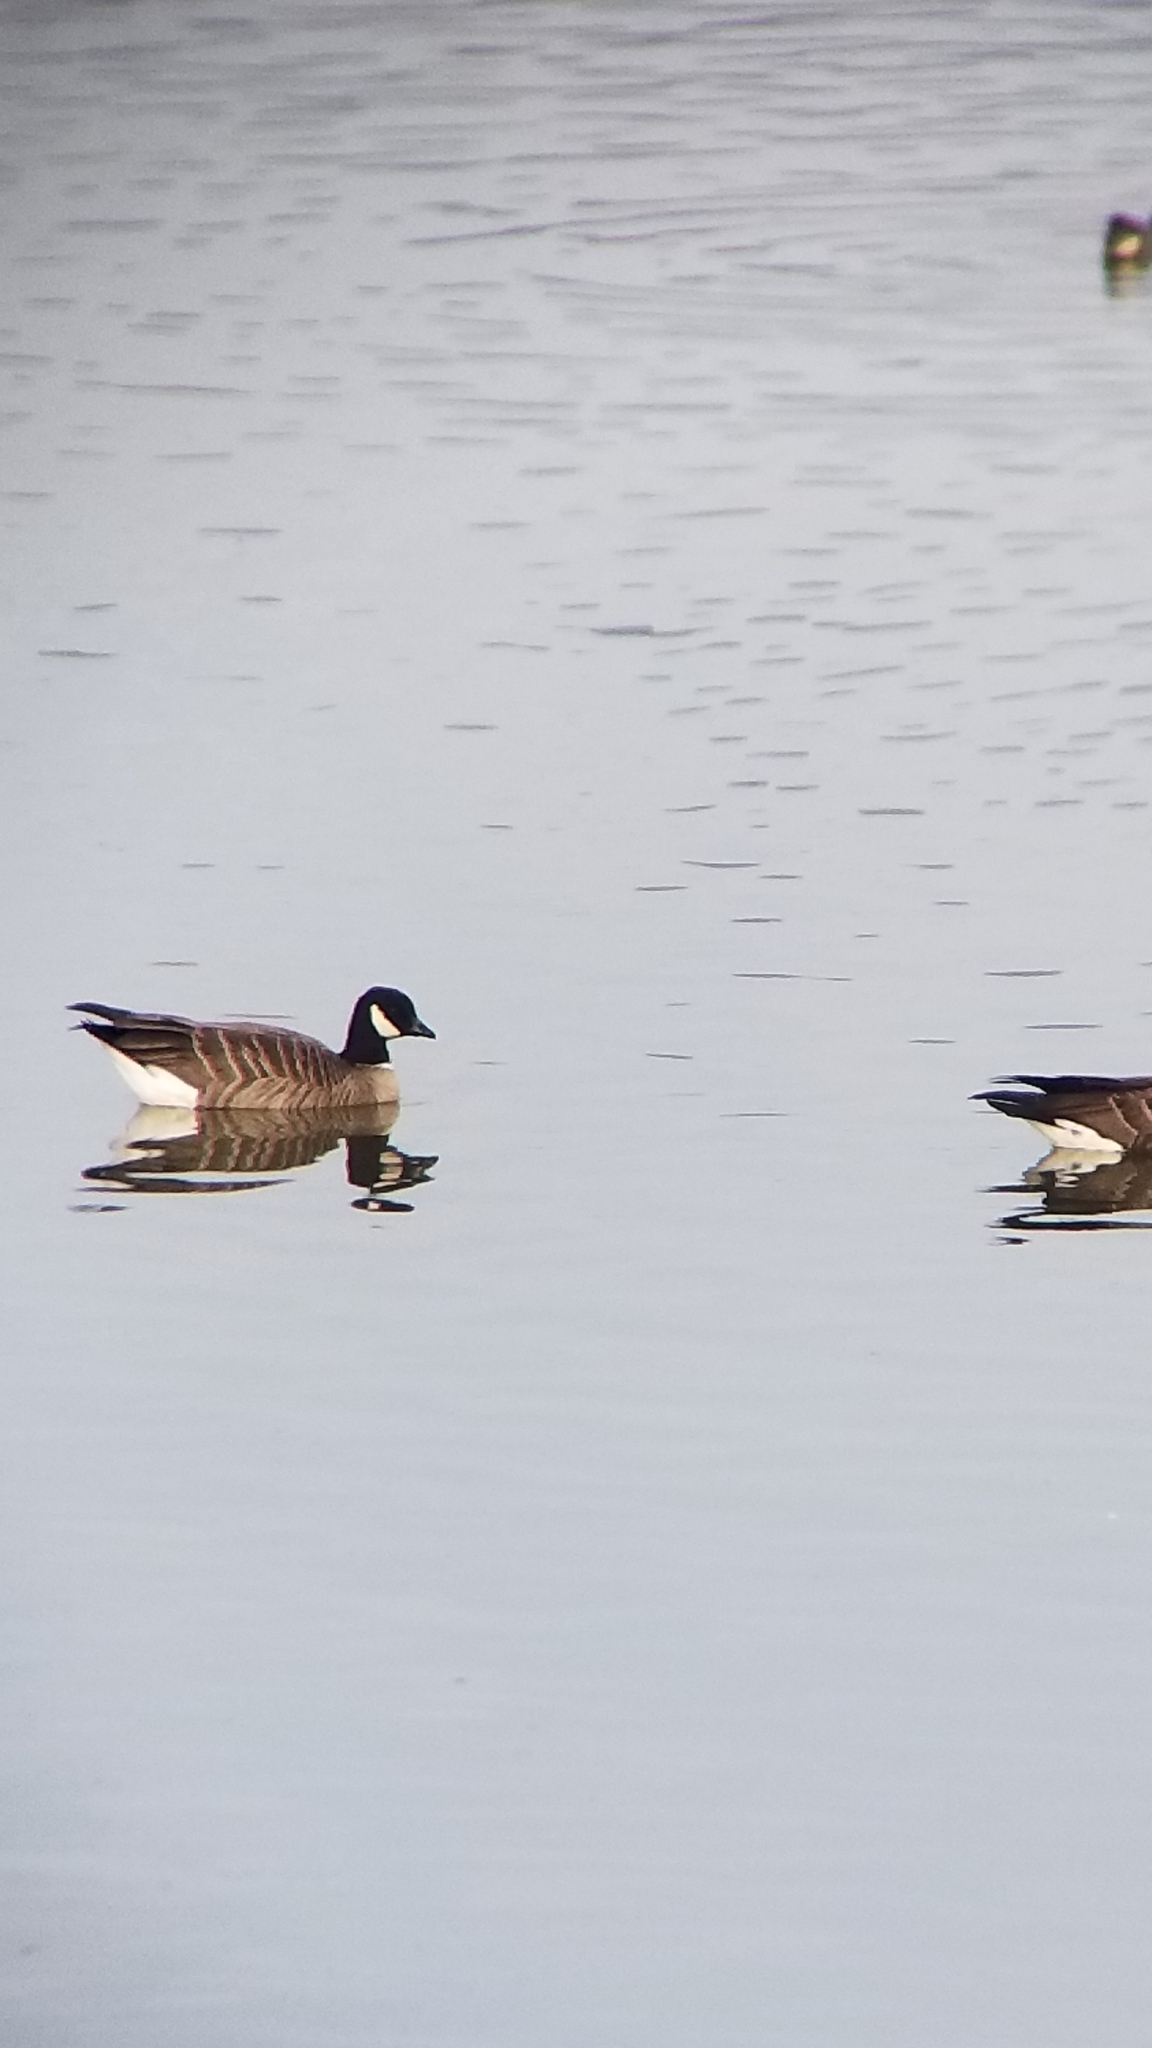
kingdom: Animalia
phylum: Chordata
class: Aves
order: Anseriformes
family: Anatidae
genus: Branta
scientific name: Branta hutchinsii
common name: Cackling goose
